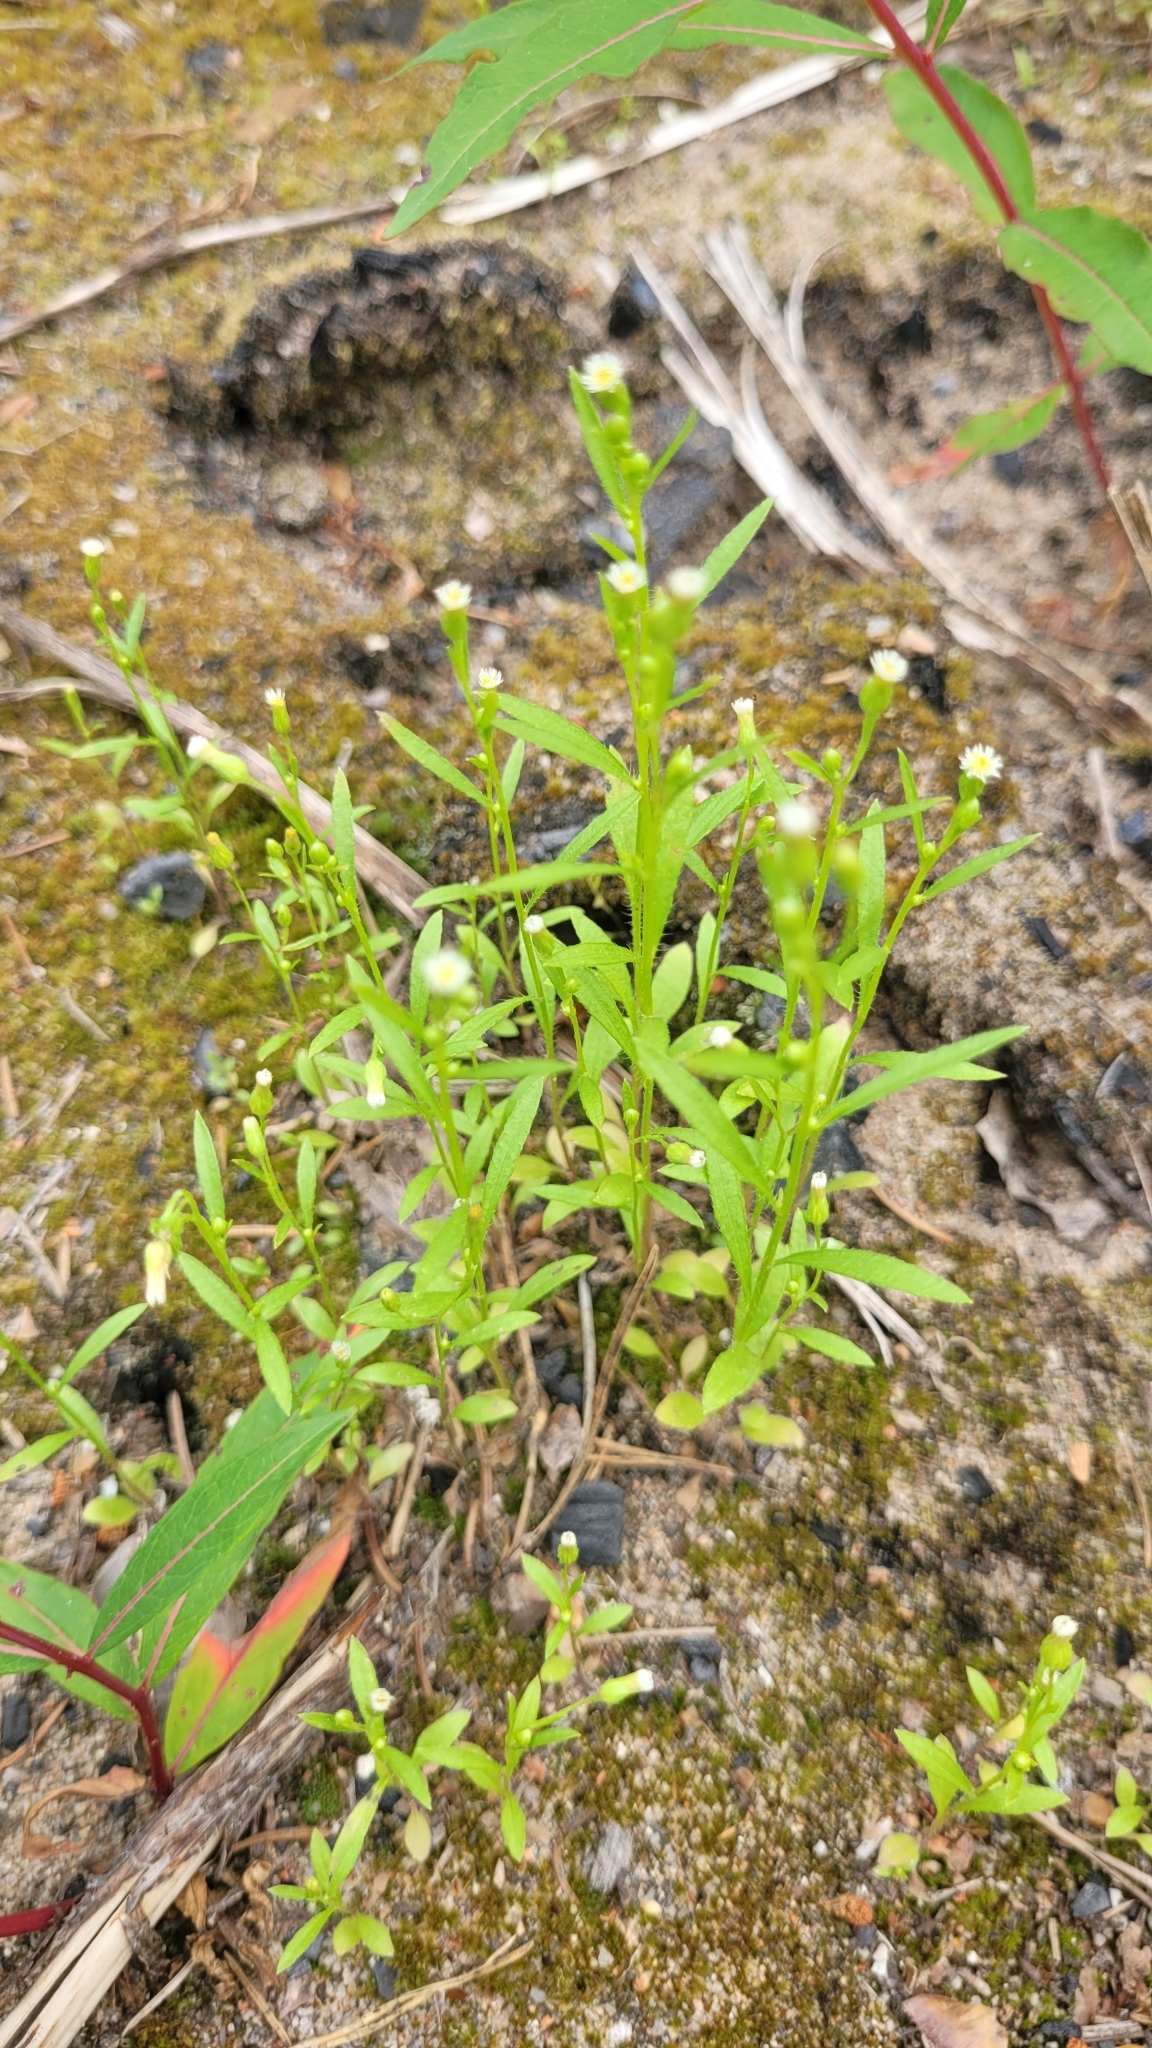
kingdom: Plantae
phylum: Tracheophyta
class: Magnoliopsida
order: Asterales
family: Asteraceae
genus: Erigeron
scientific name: Erigeron canadensis
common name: Canadian fleabane
